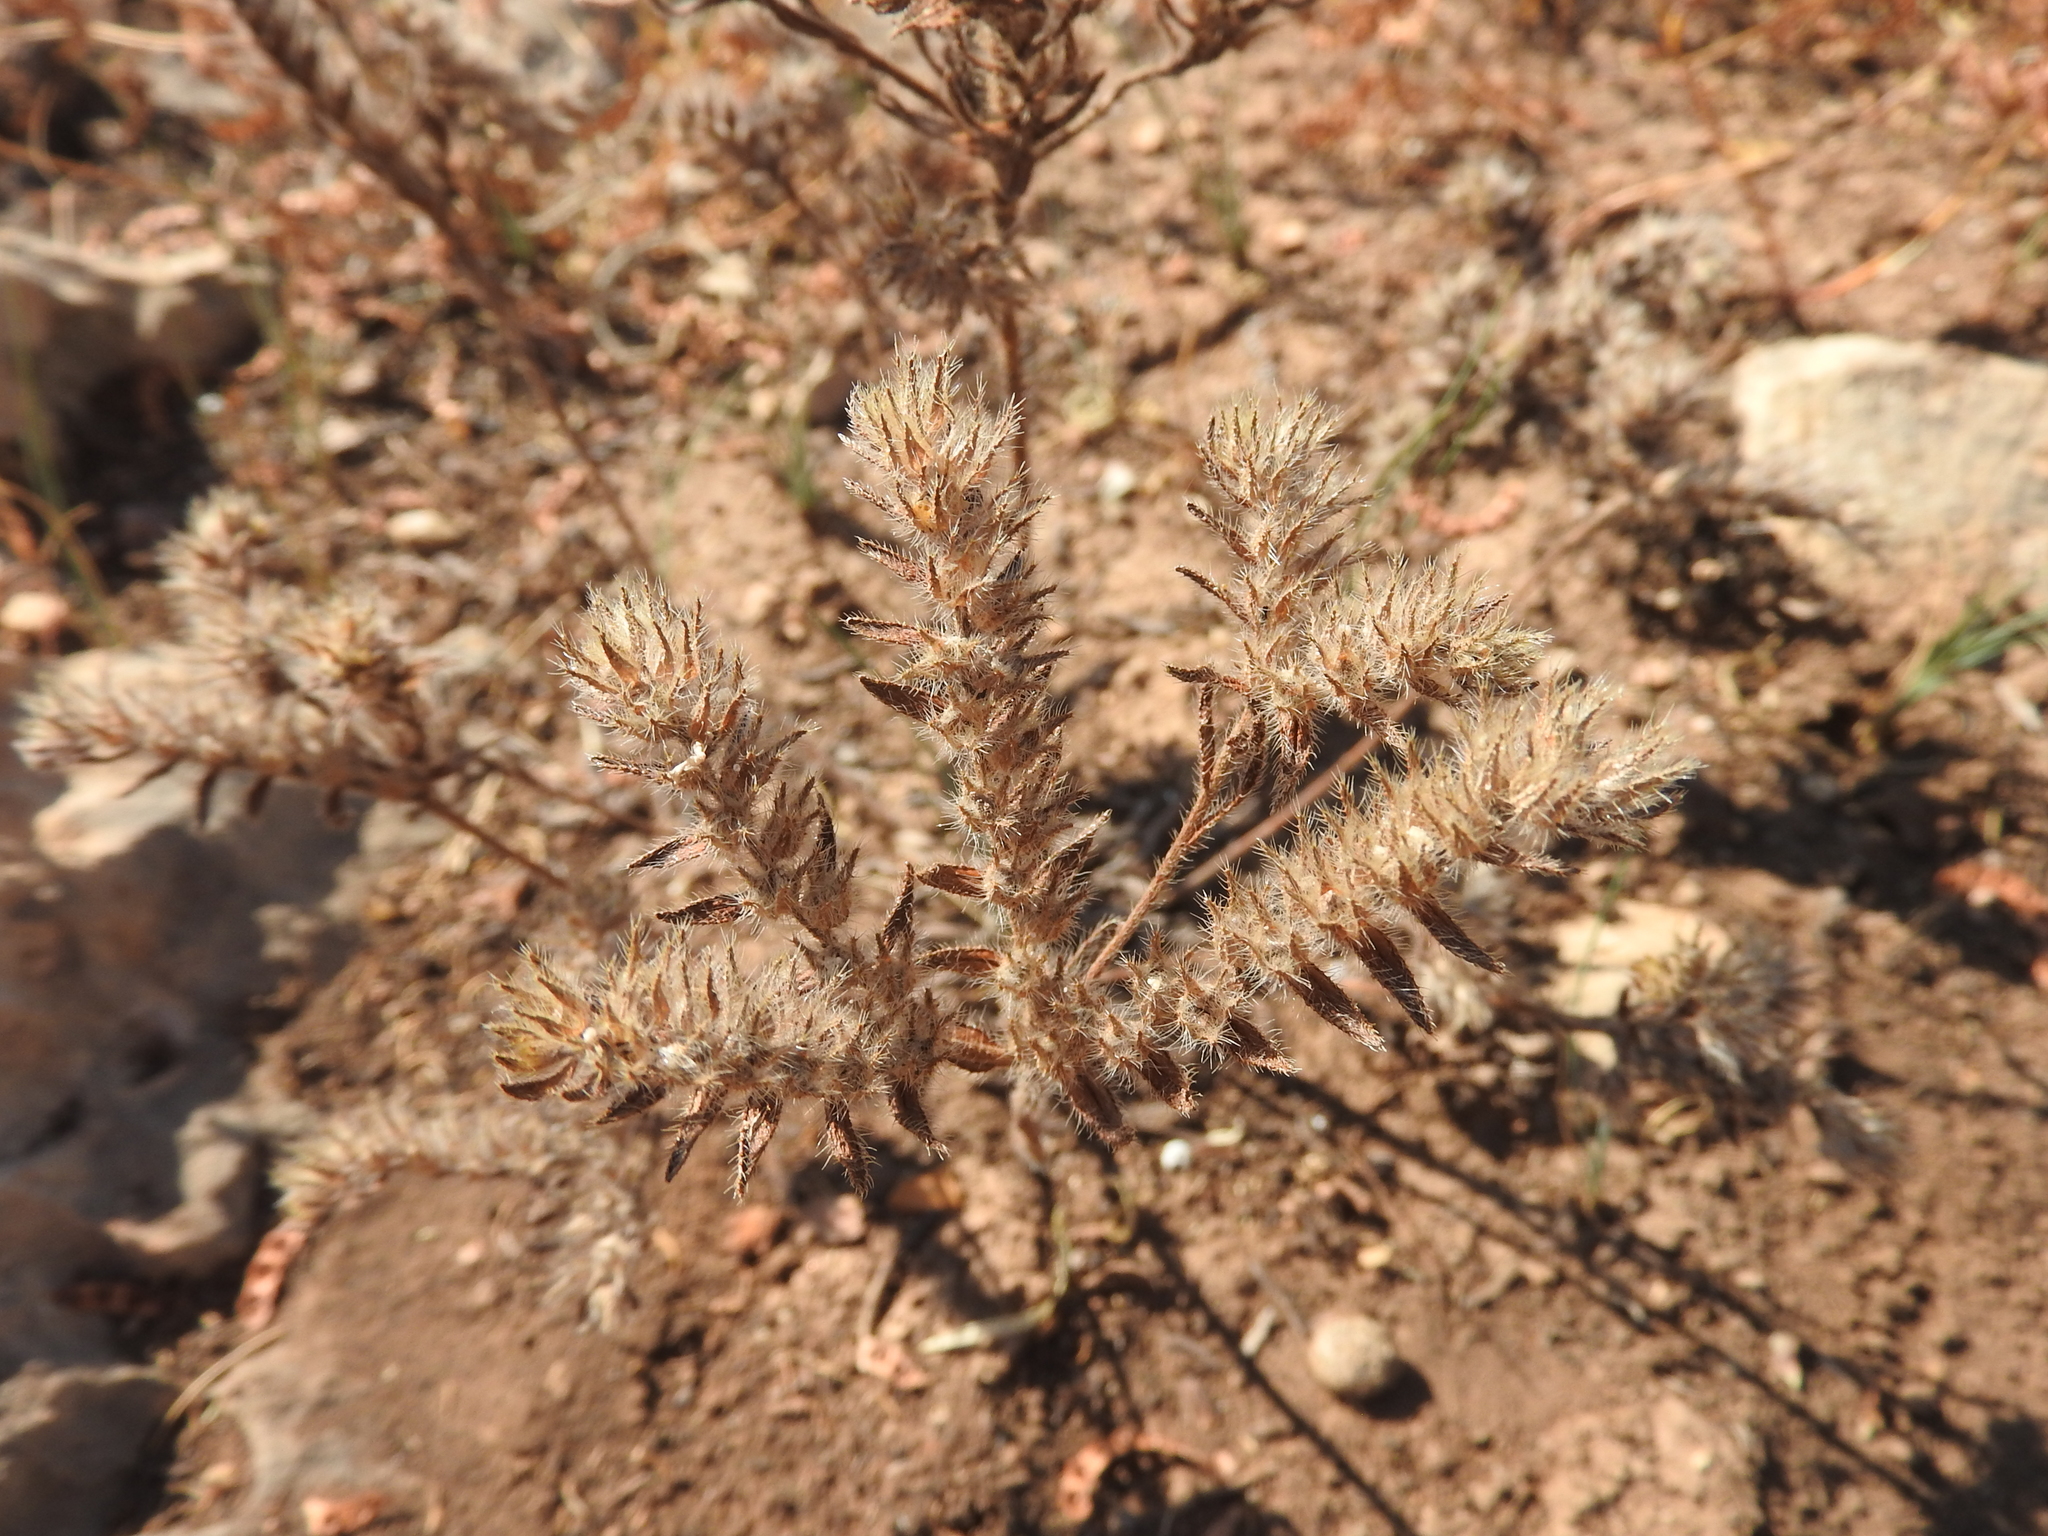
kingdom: Plantae
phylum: Tracheophyta
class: Magnoliopsida
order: Boraginales
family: Boraginaceae
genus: Neatostema
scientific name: Neatostema apulum
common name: Hairy sheepweed
